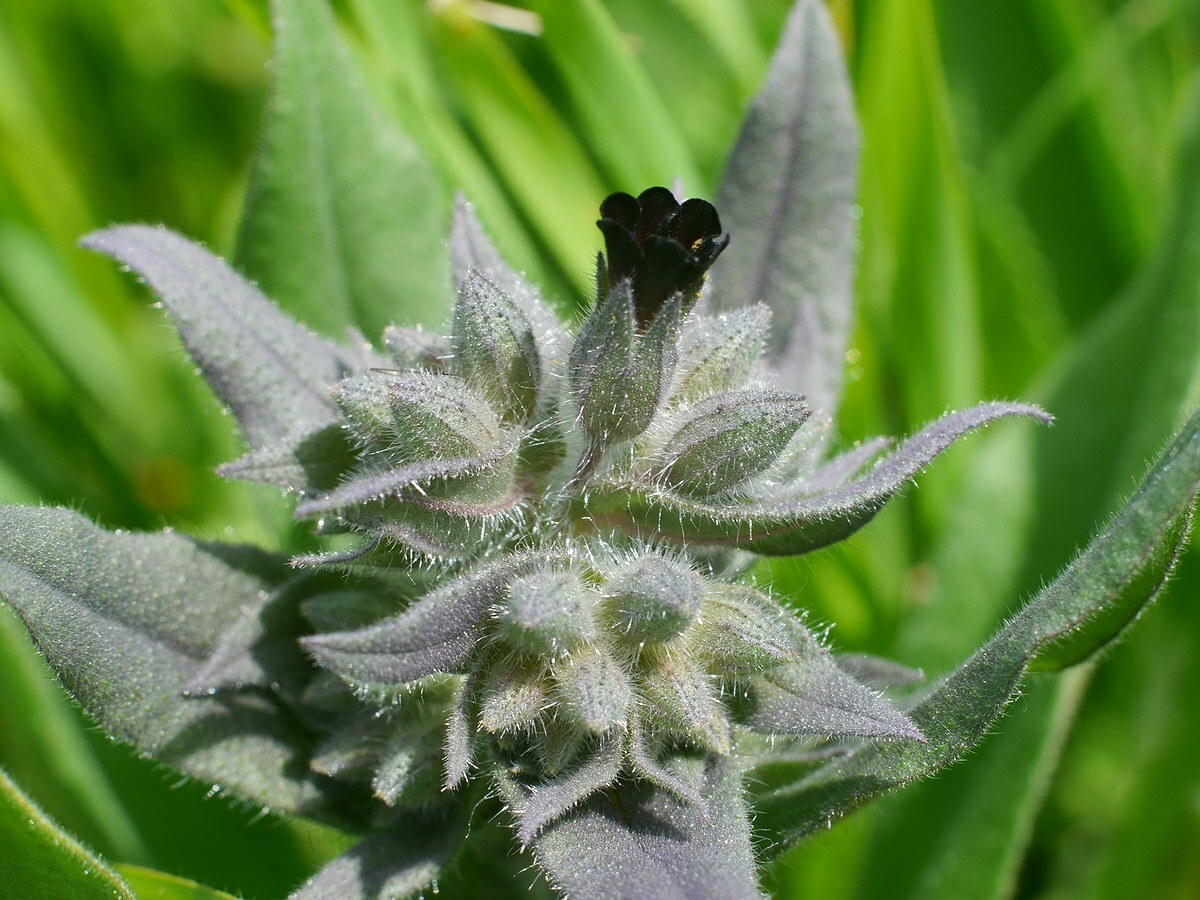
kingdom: Plantae
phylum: Tracheophyta
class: Magnoliopsida
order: Boraginales
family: Boraginaceae
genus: Nonea
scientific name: Nonea pulla
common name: Brown nonea
